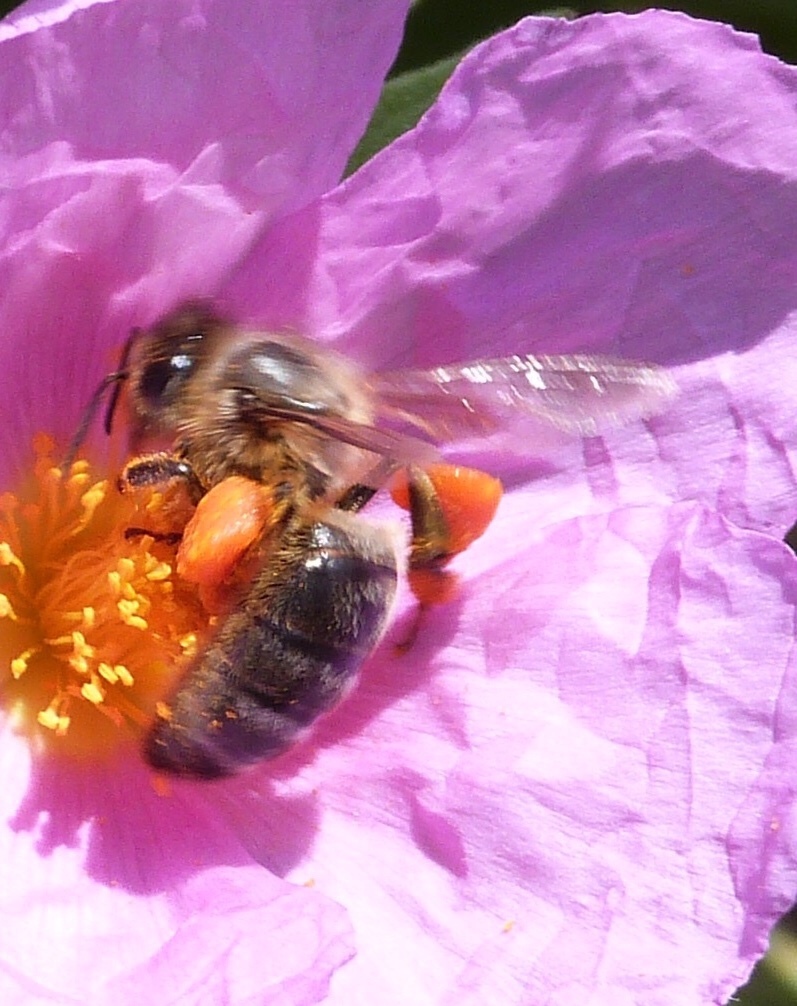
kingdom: Animalia
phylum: Arthropoda
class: Insecta
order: Hymenoptera
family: Apidae
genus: Apis
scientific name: Apis mellifera
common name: Honey bee
